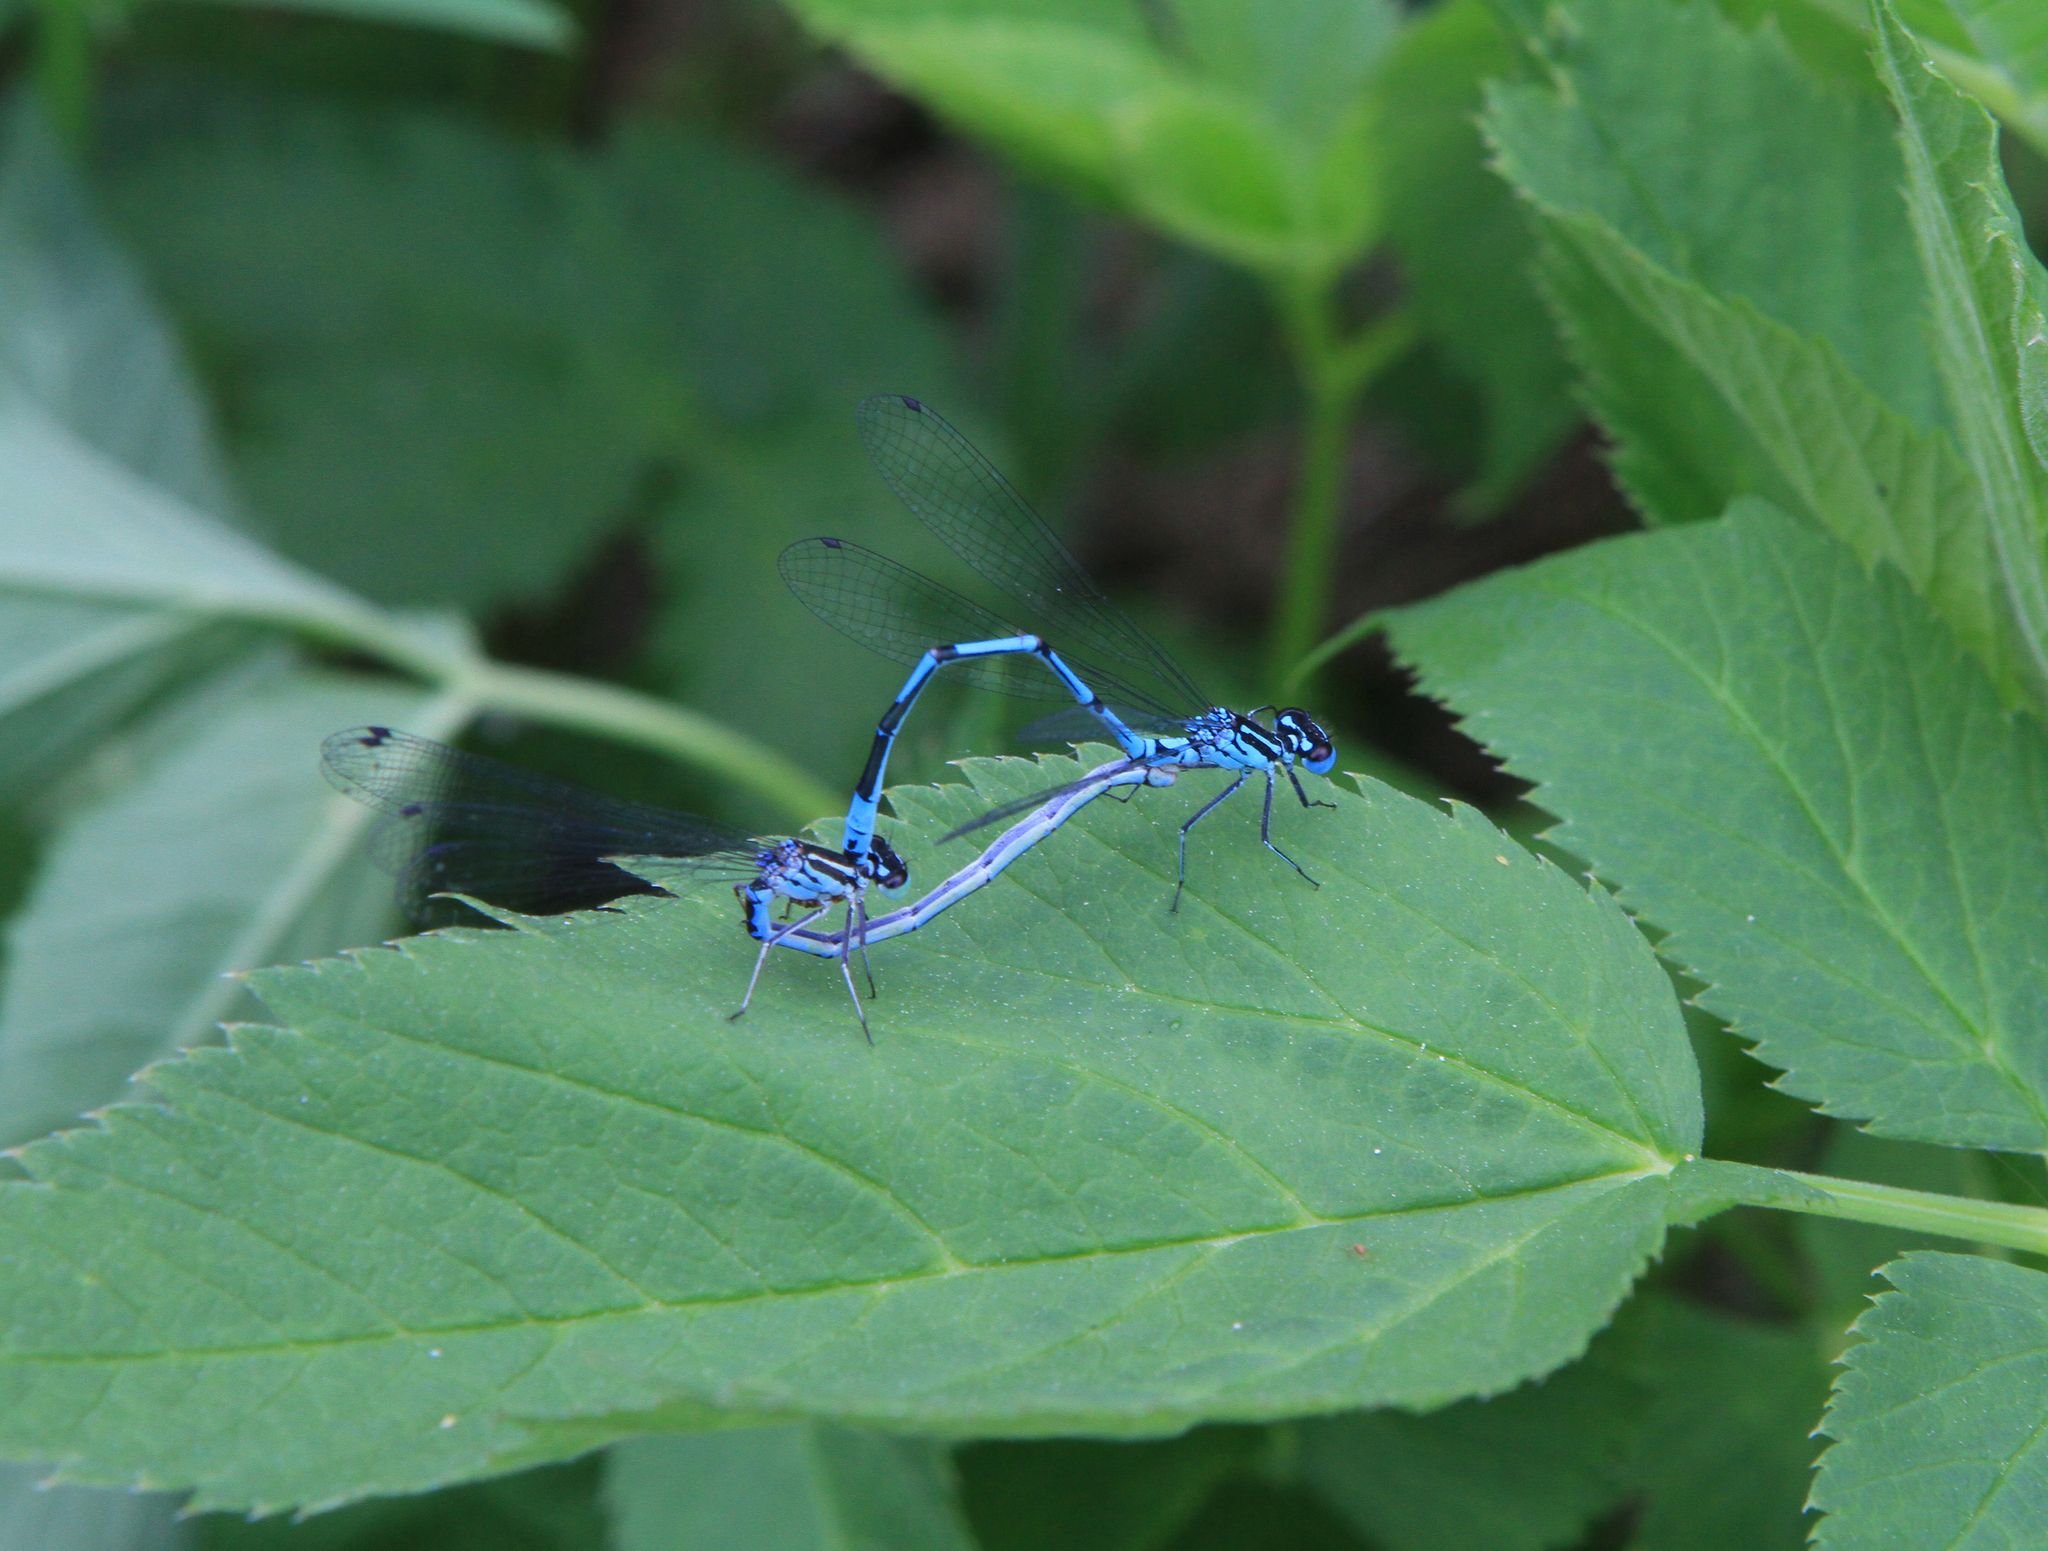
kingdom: Animalia
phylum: Arthropoda
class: Insecta
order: Odonata
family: Coenagrionidae
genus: Coenagrion
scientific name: Coenagrion puella
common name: Azure damselfly
